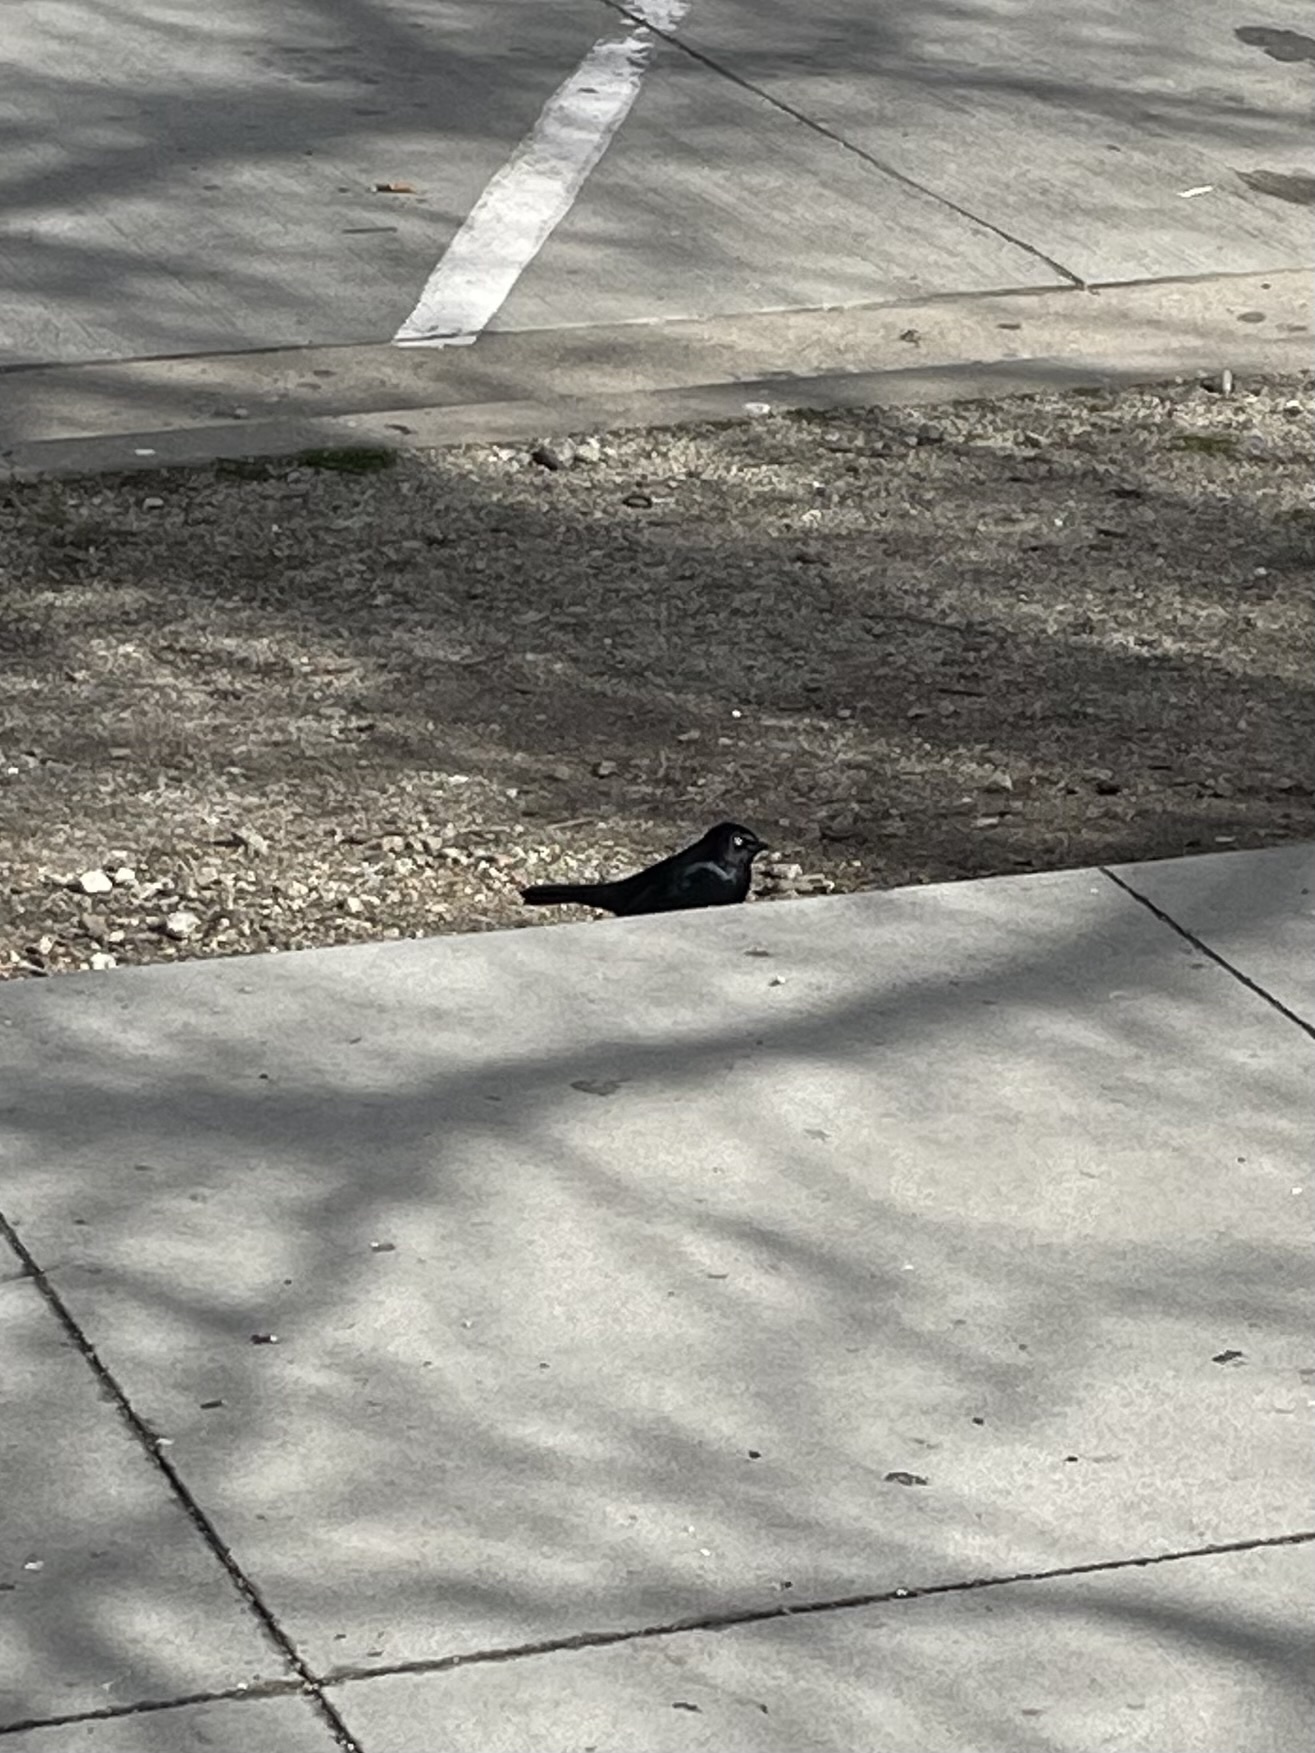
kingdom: Animalia
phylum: Chordata
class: Aves
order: Passeriformes
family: Icteridae
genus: Euphagus
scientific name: Euphagus cyanocephalus
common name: Brewer's blackbird
